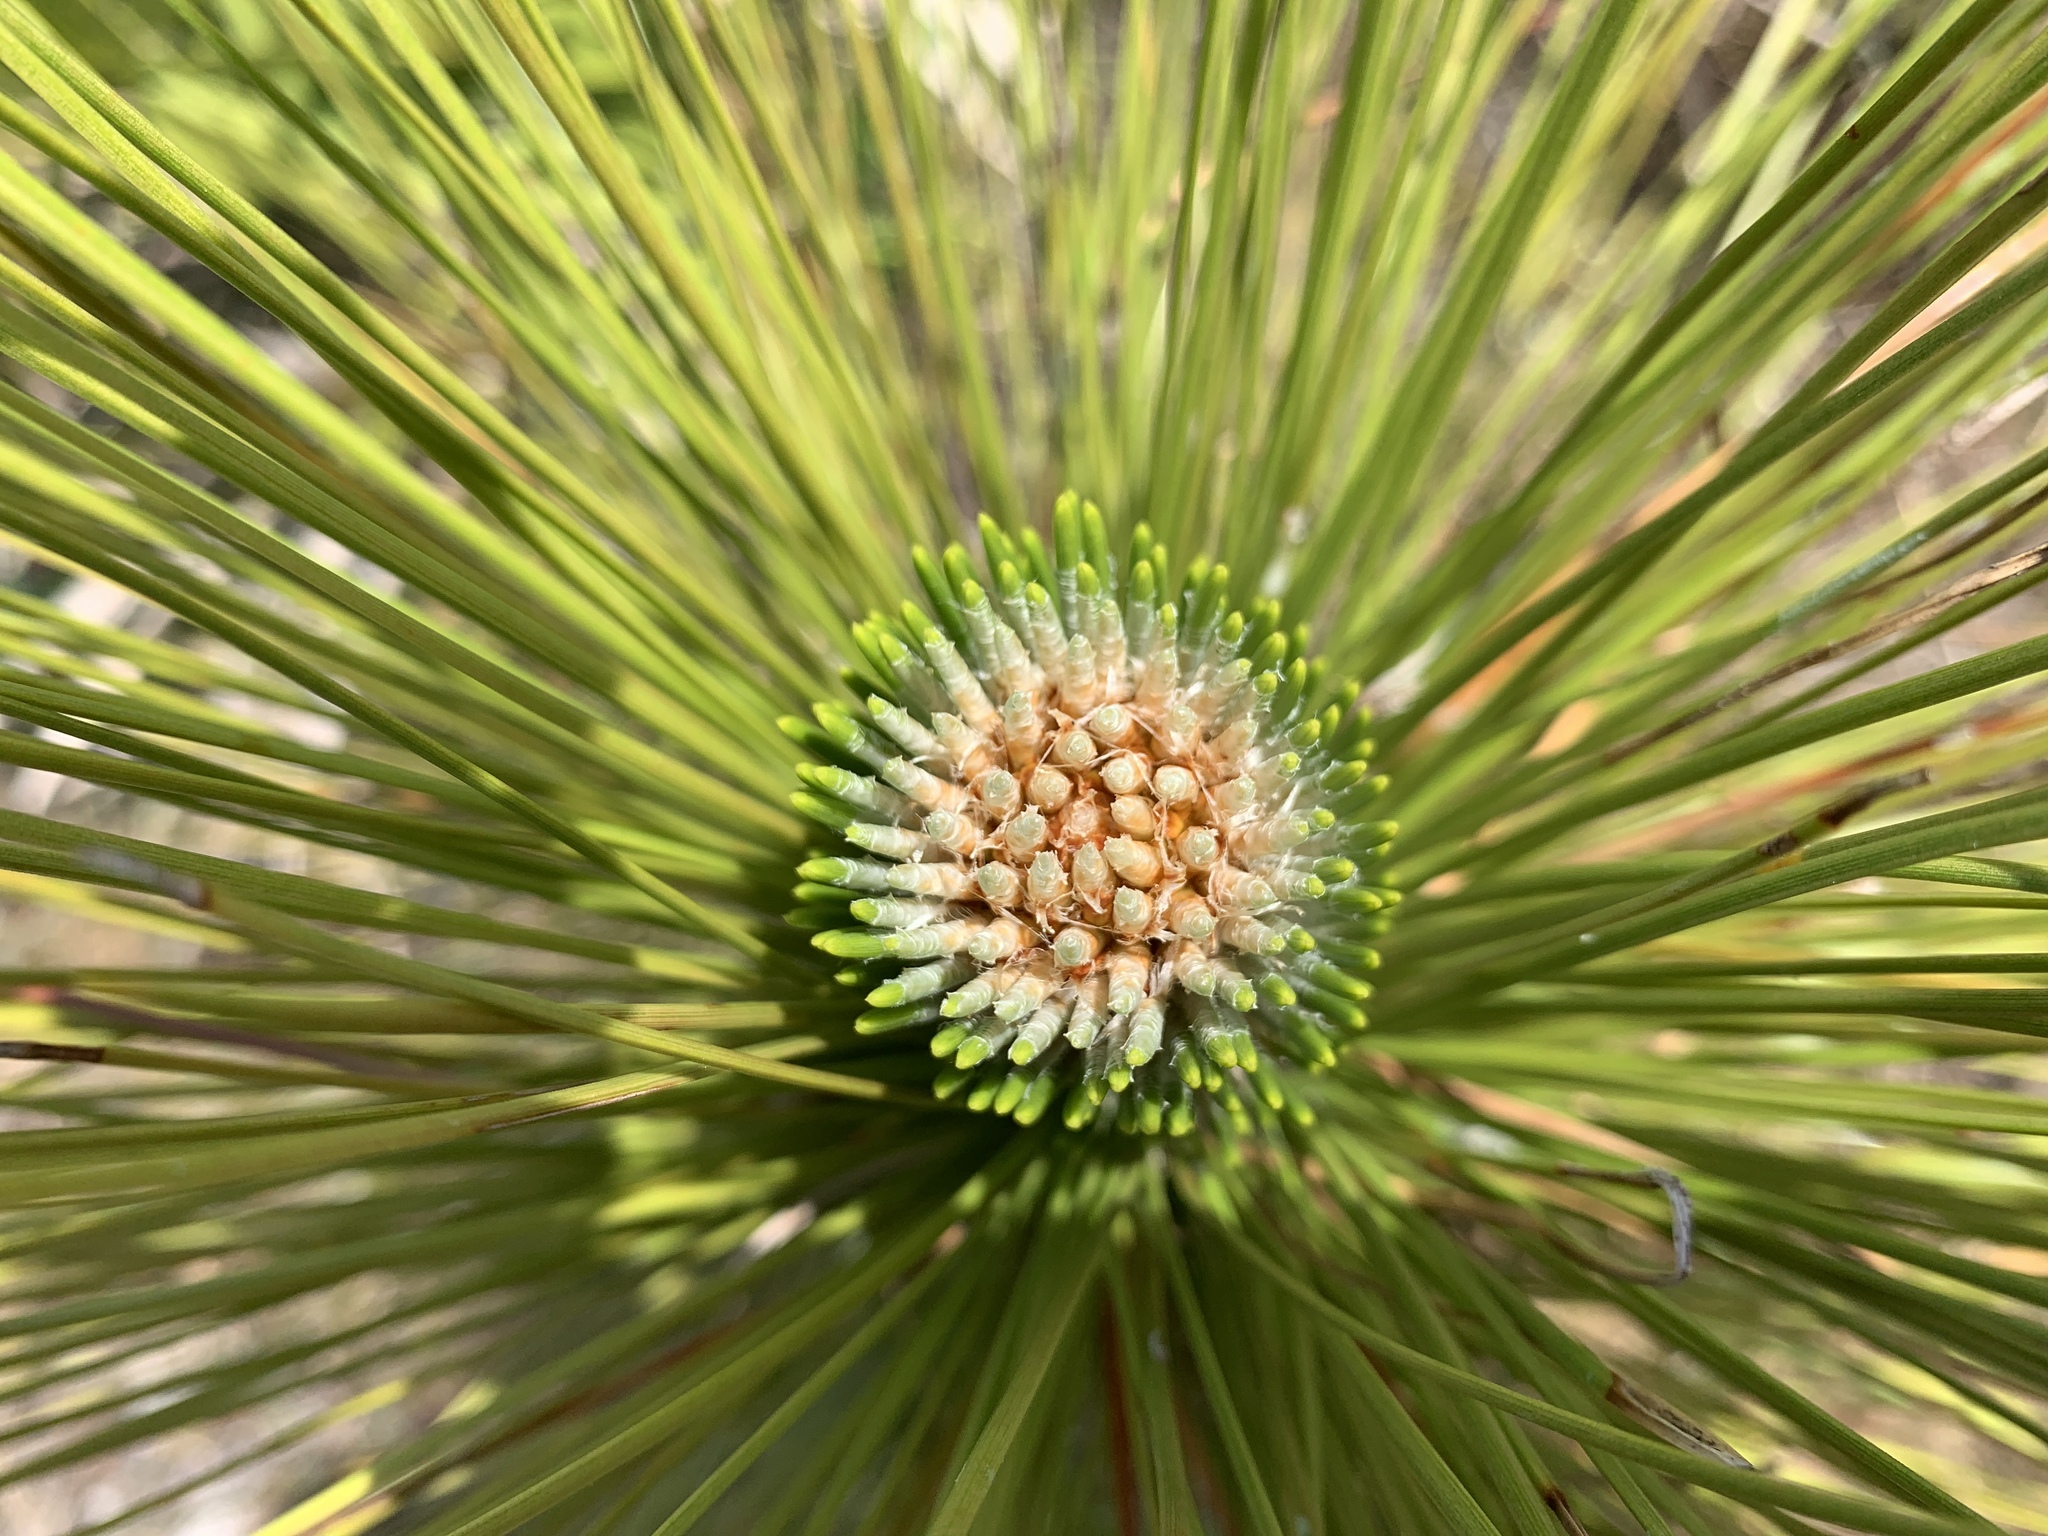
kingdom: Plantae
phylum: Tracheophyta
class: Pinopsida
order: Pinales
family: Pinaceae
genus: Pinus
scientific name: Pinus palustris
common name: Longleaf pine
